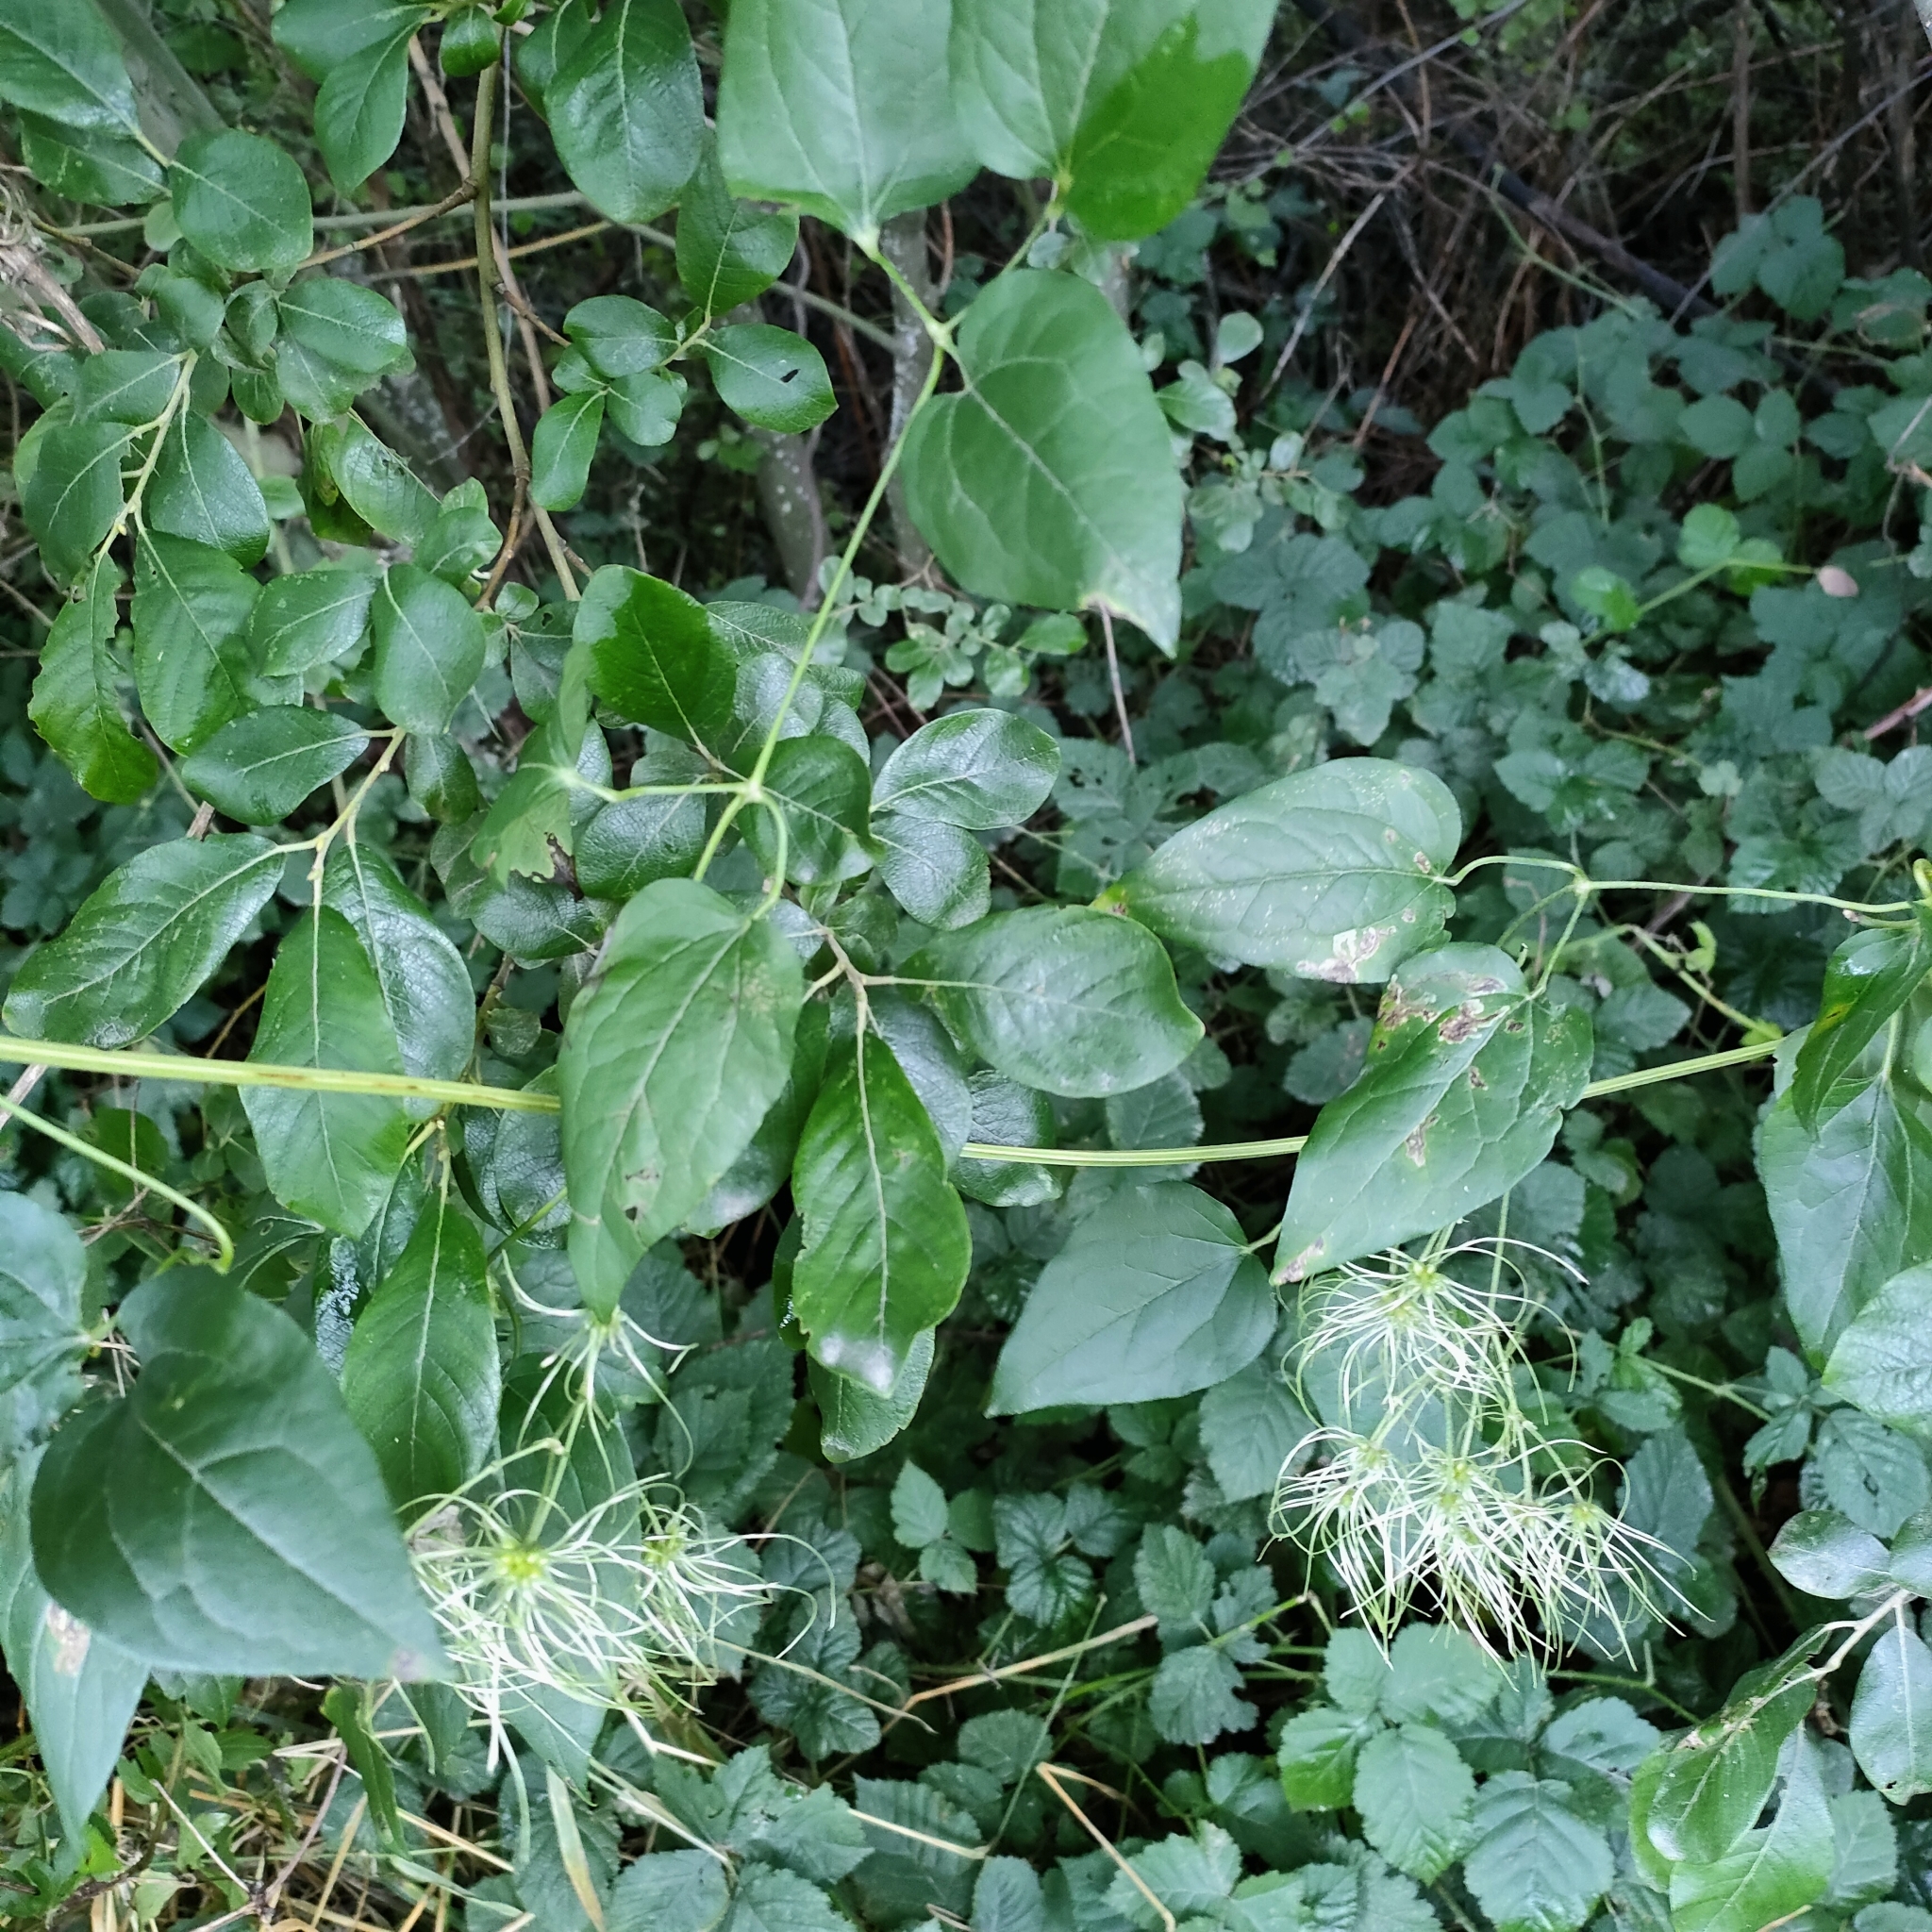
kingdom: Plantae
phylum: Tracheophyta
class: Magnoliopsida
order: Ranunculales
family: Ranunculaceae
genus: Clematis
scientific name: Clematis vitalba
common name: Evergreen clematis
